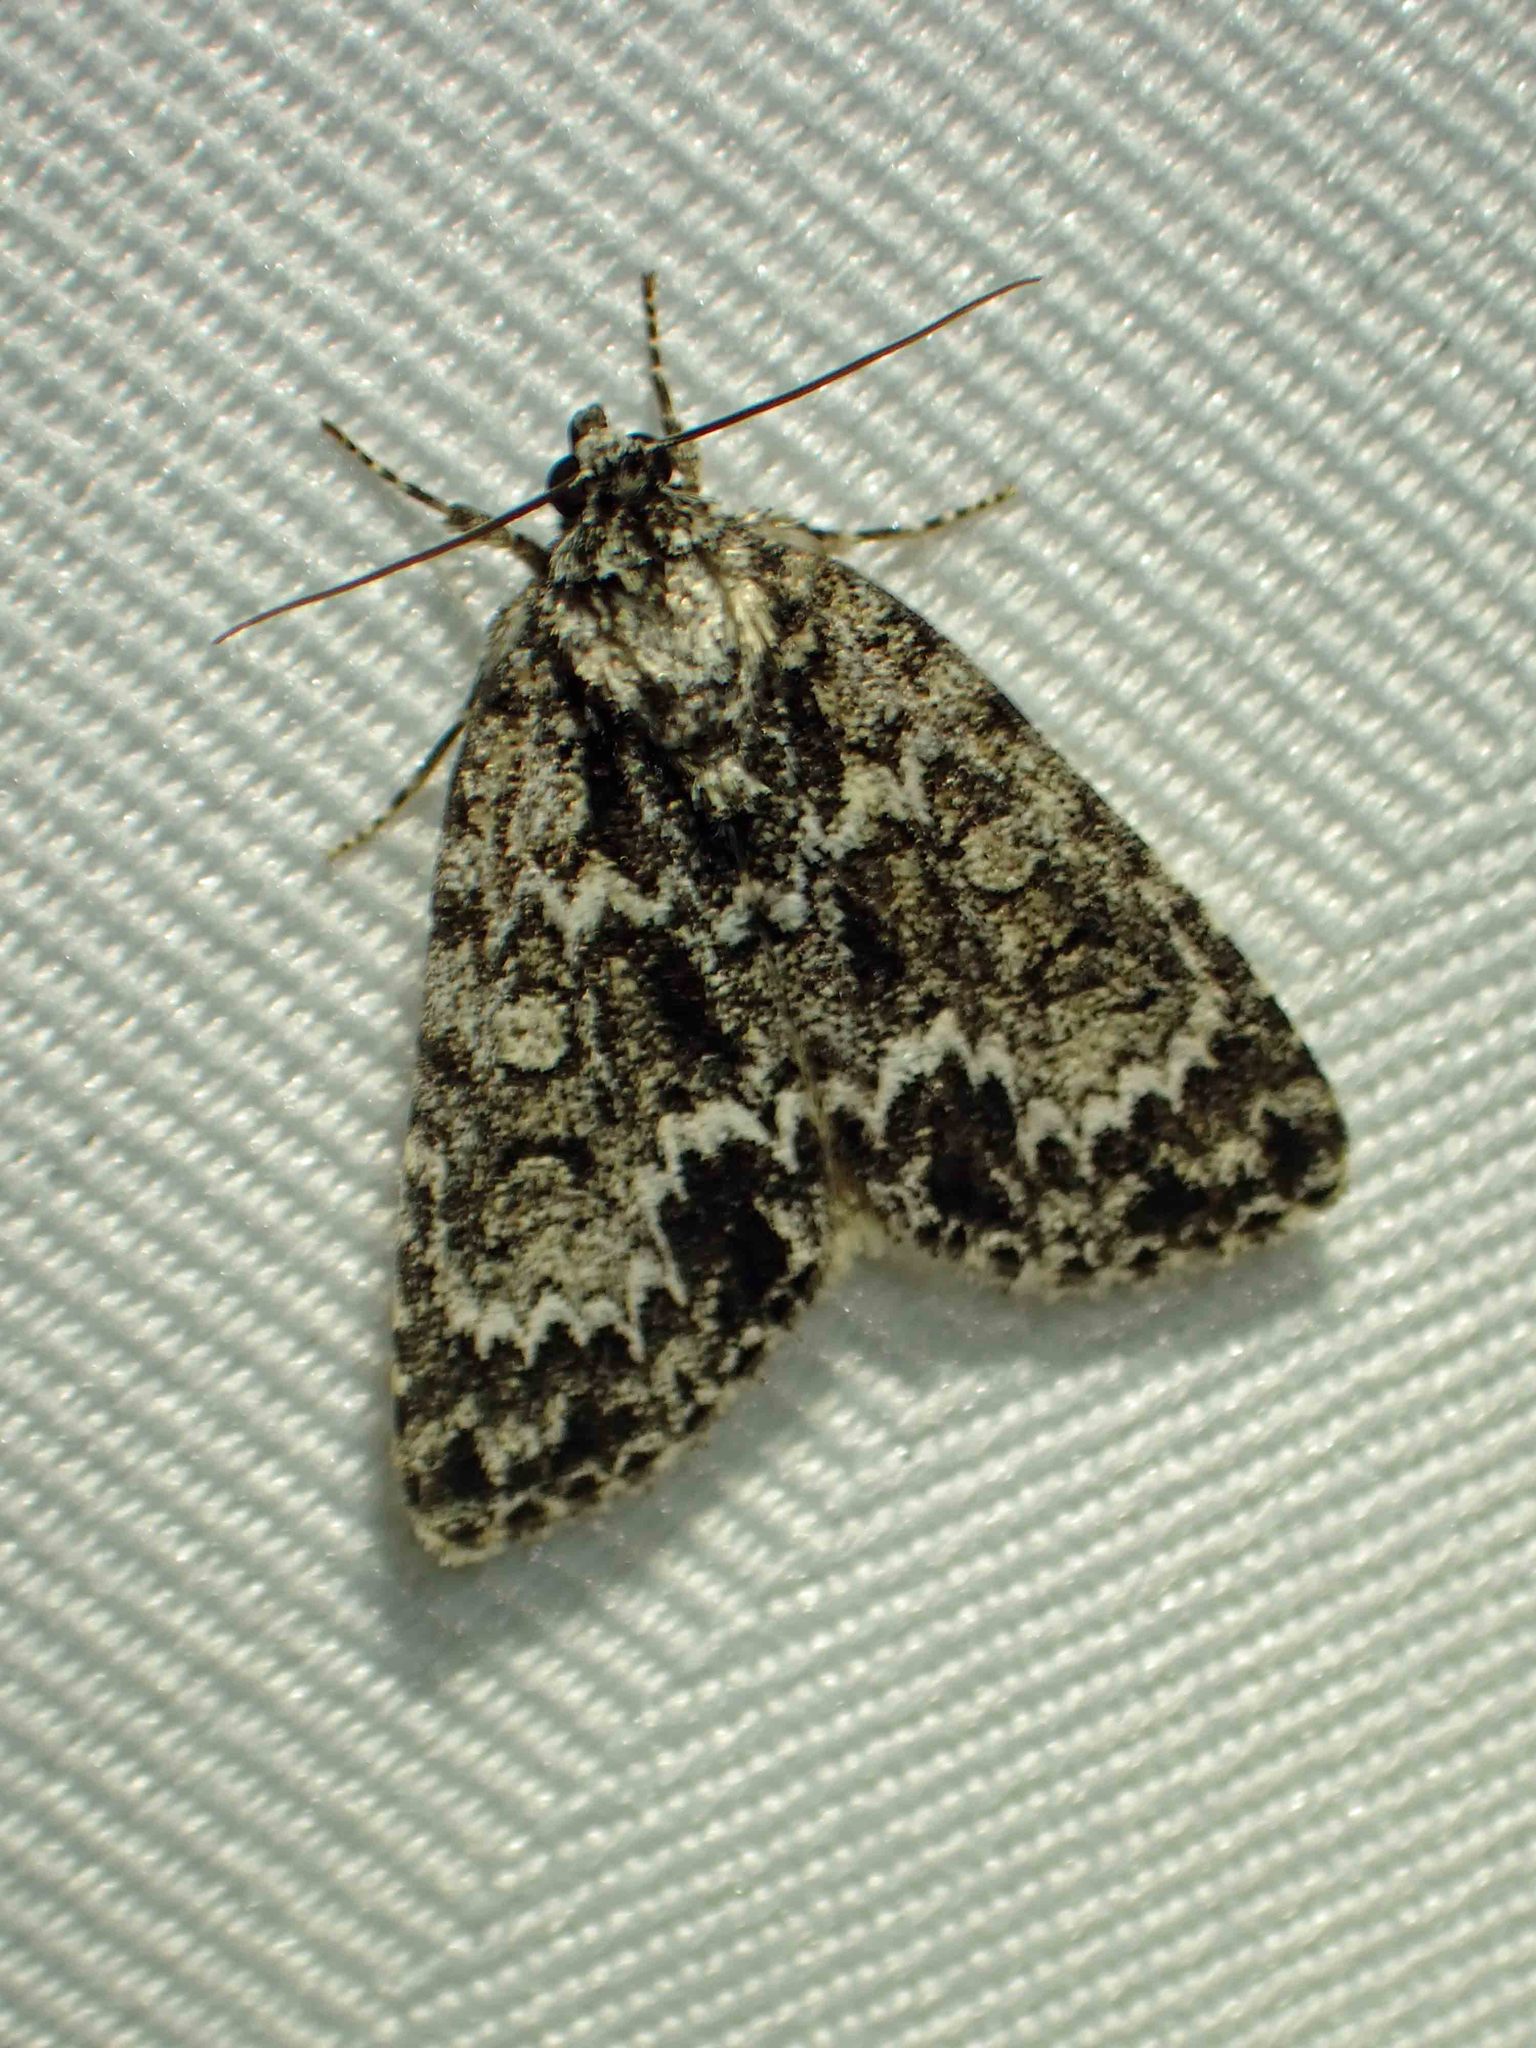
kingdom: Animalia
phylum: Arthropoda
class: Insecta
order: Lepidoptera
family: Noctuidae
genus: Acronicta
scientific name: Acronicta fragilis
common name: Fragile dagger
